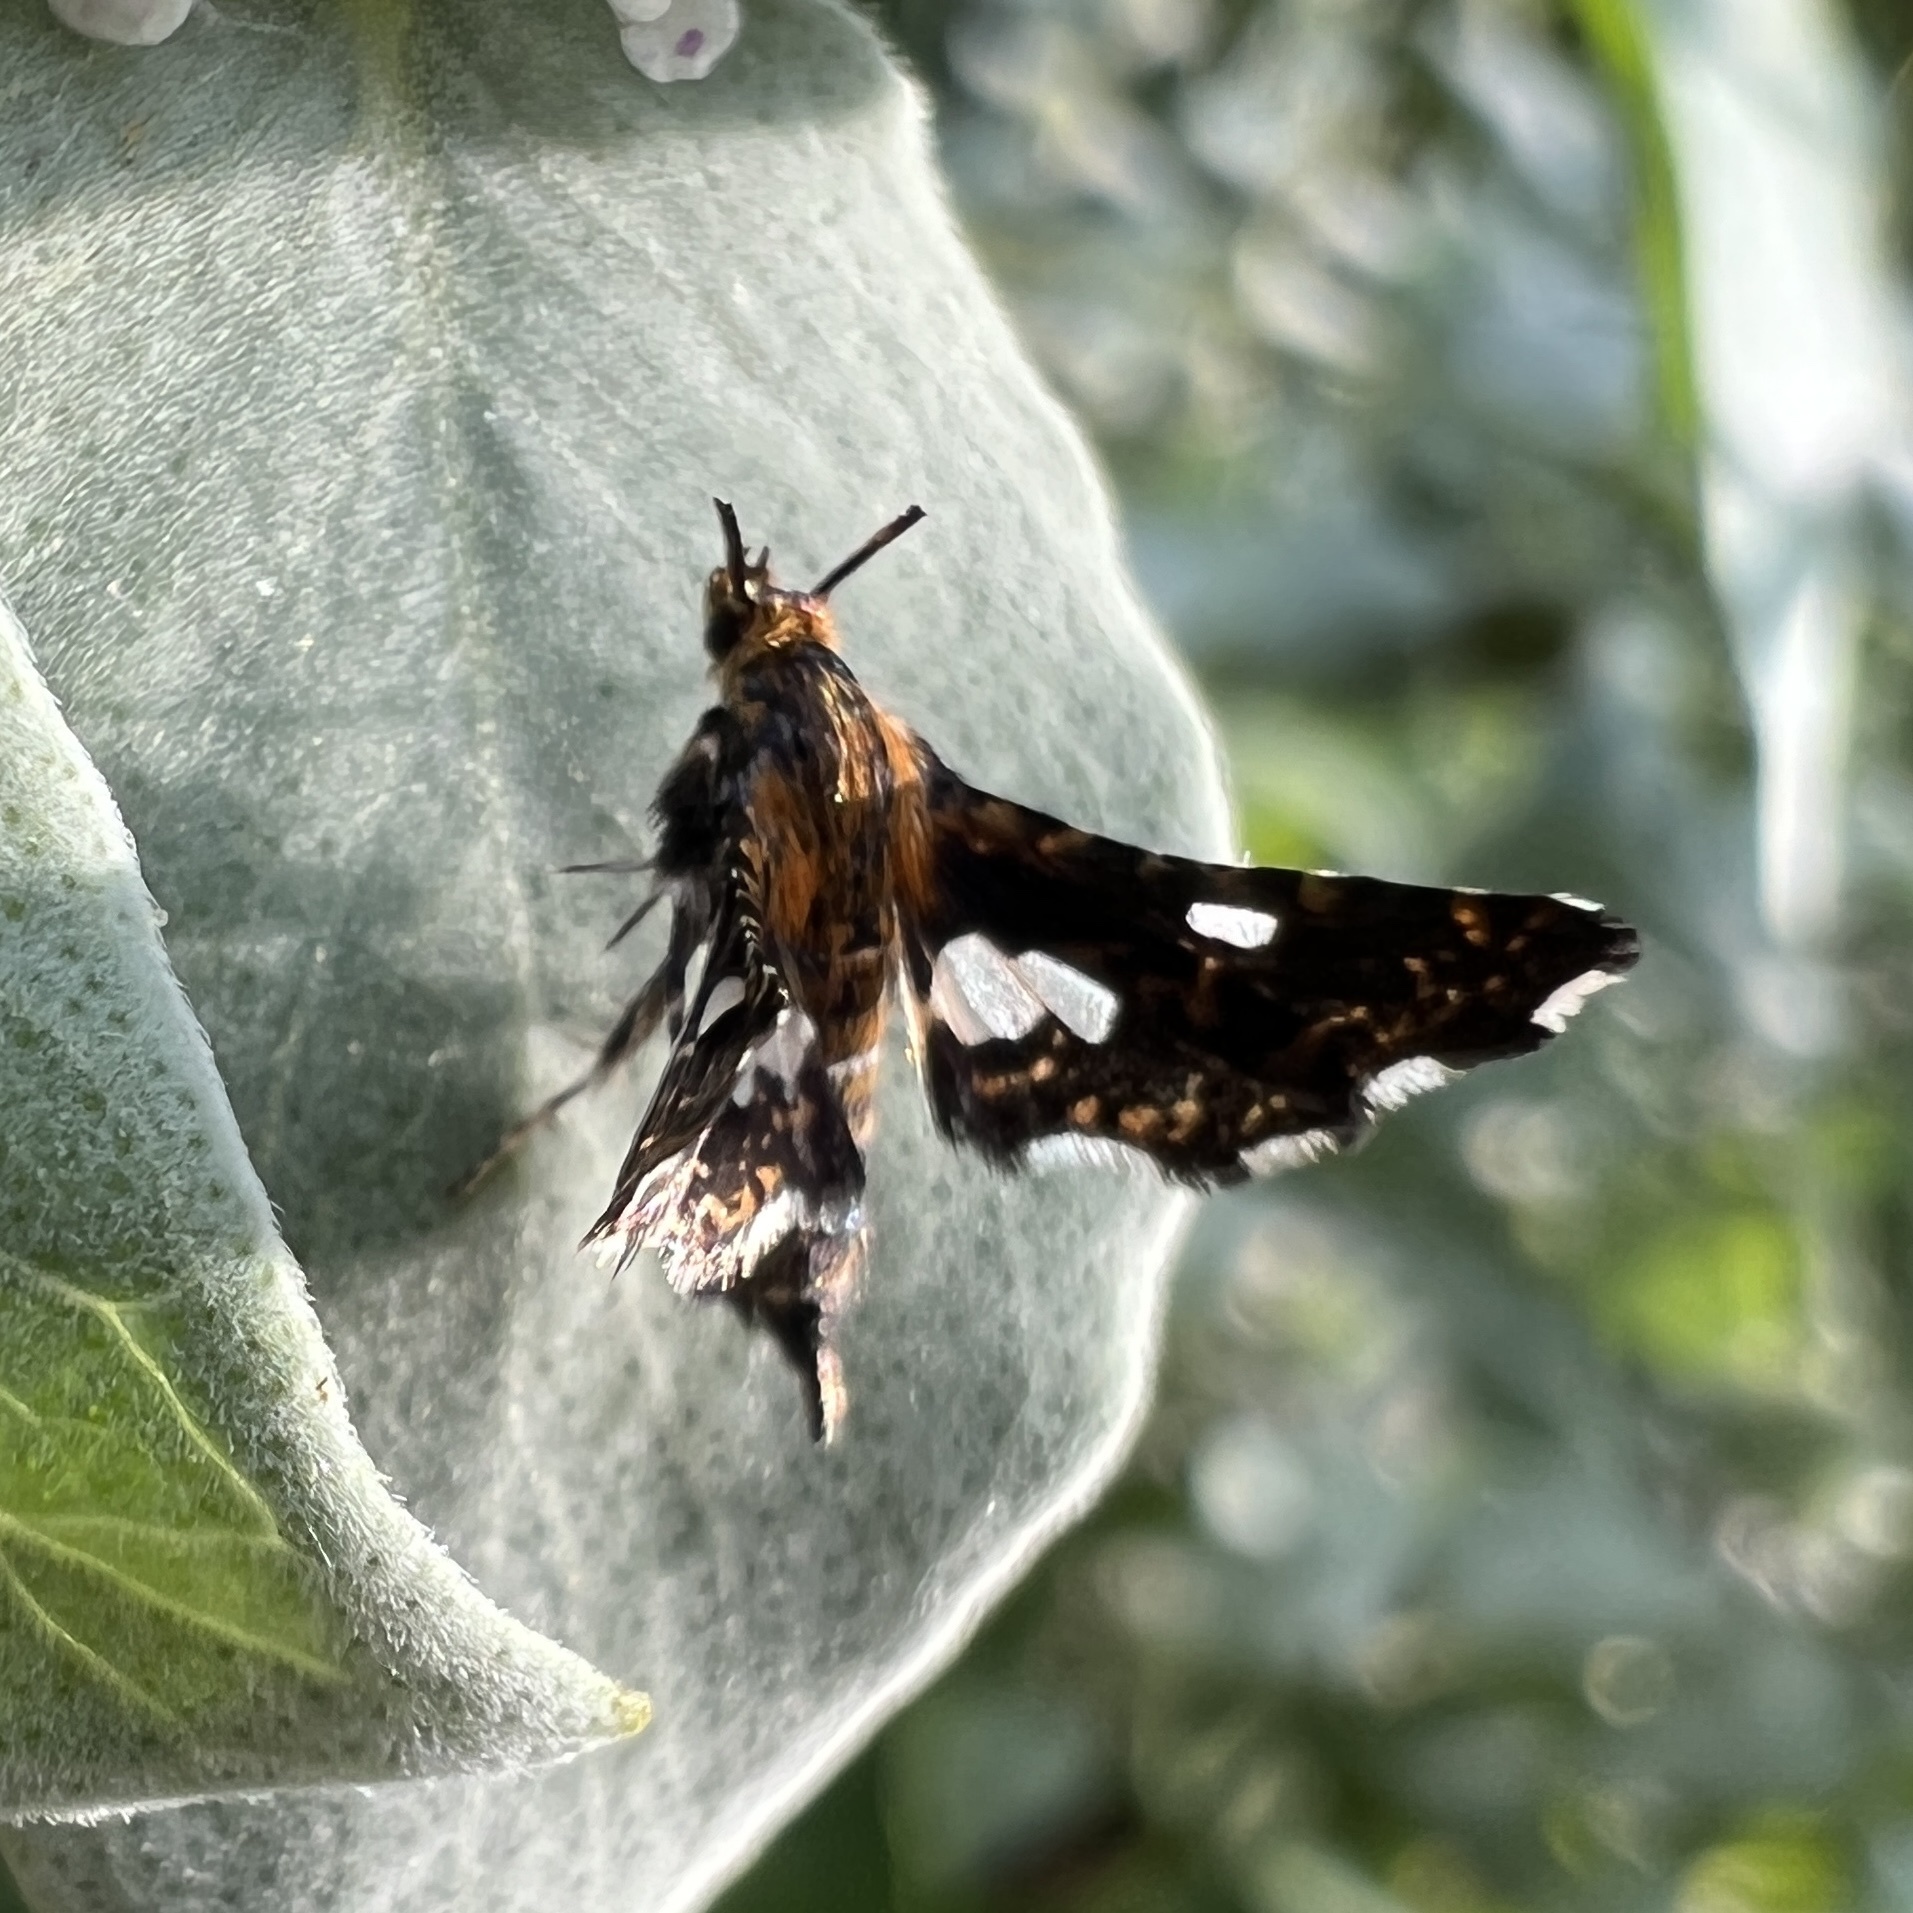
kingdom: Animalia
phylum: Arthropoda
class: Insecta
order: Lepidoptera
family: Thyrididae
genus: Thyris
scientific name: Thyris maculata
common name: Spotted thyris moth
